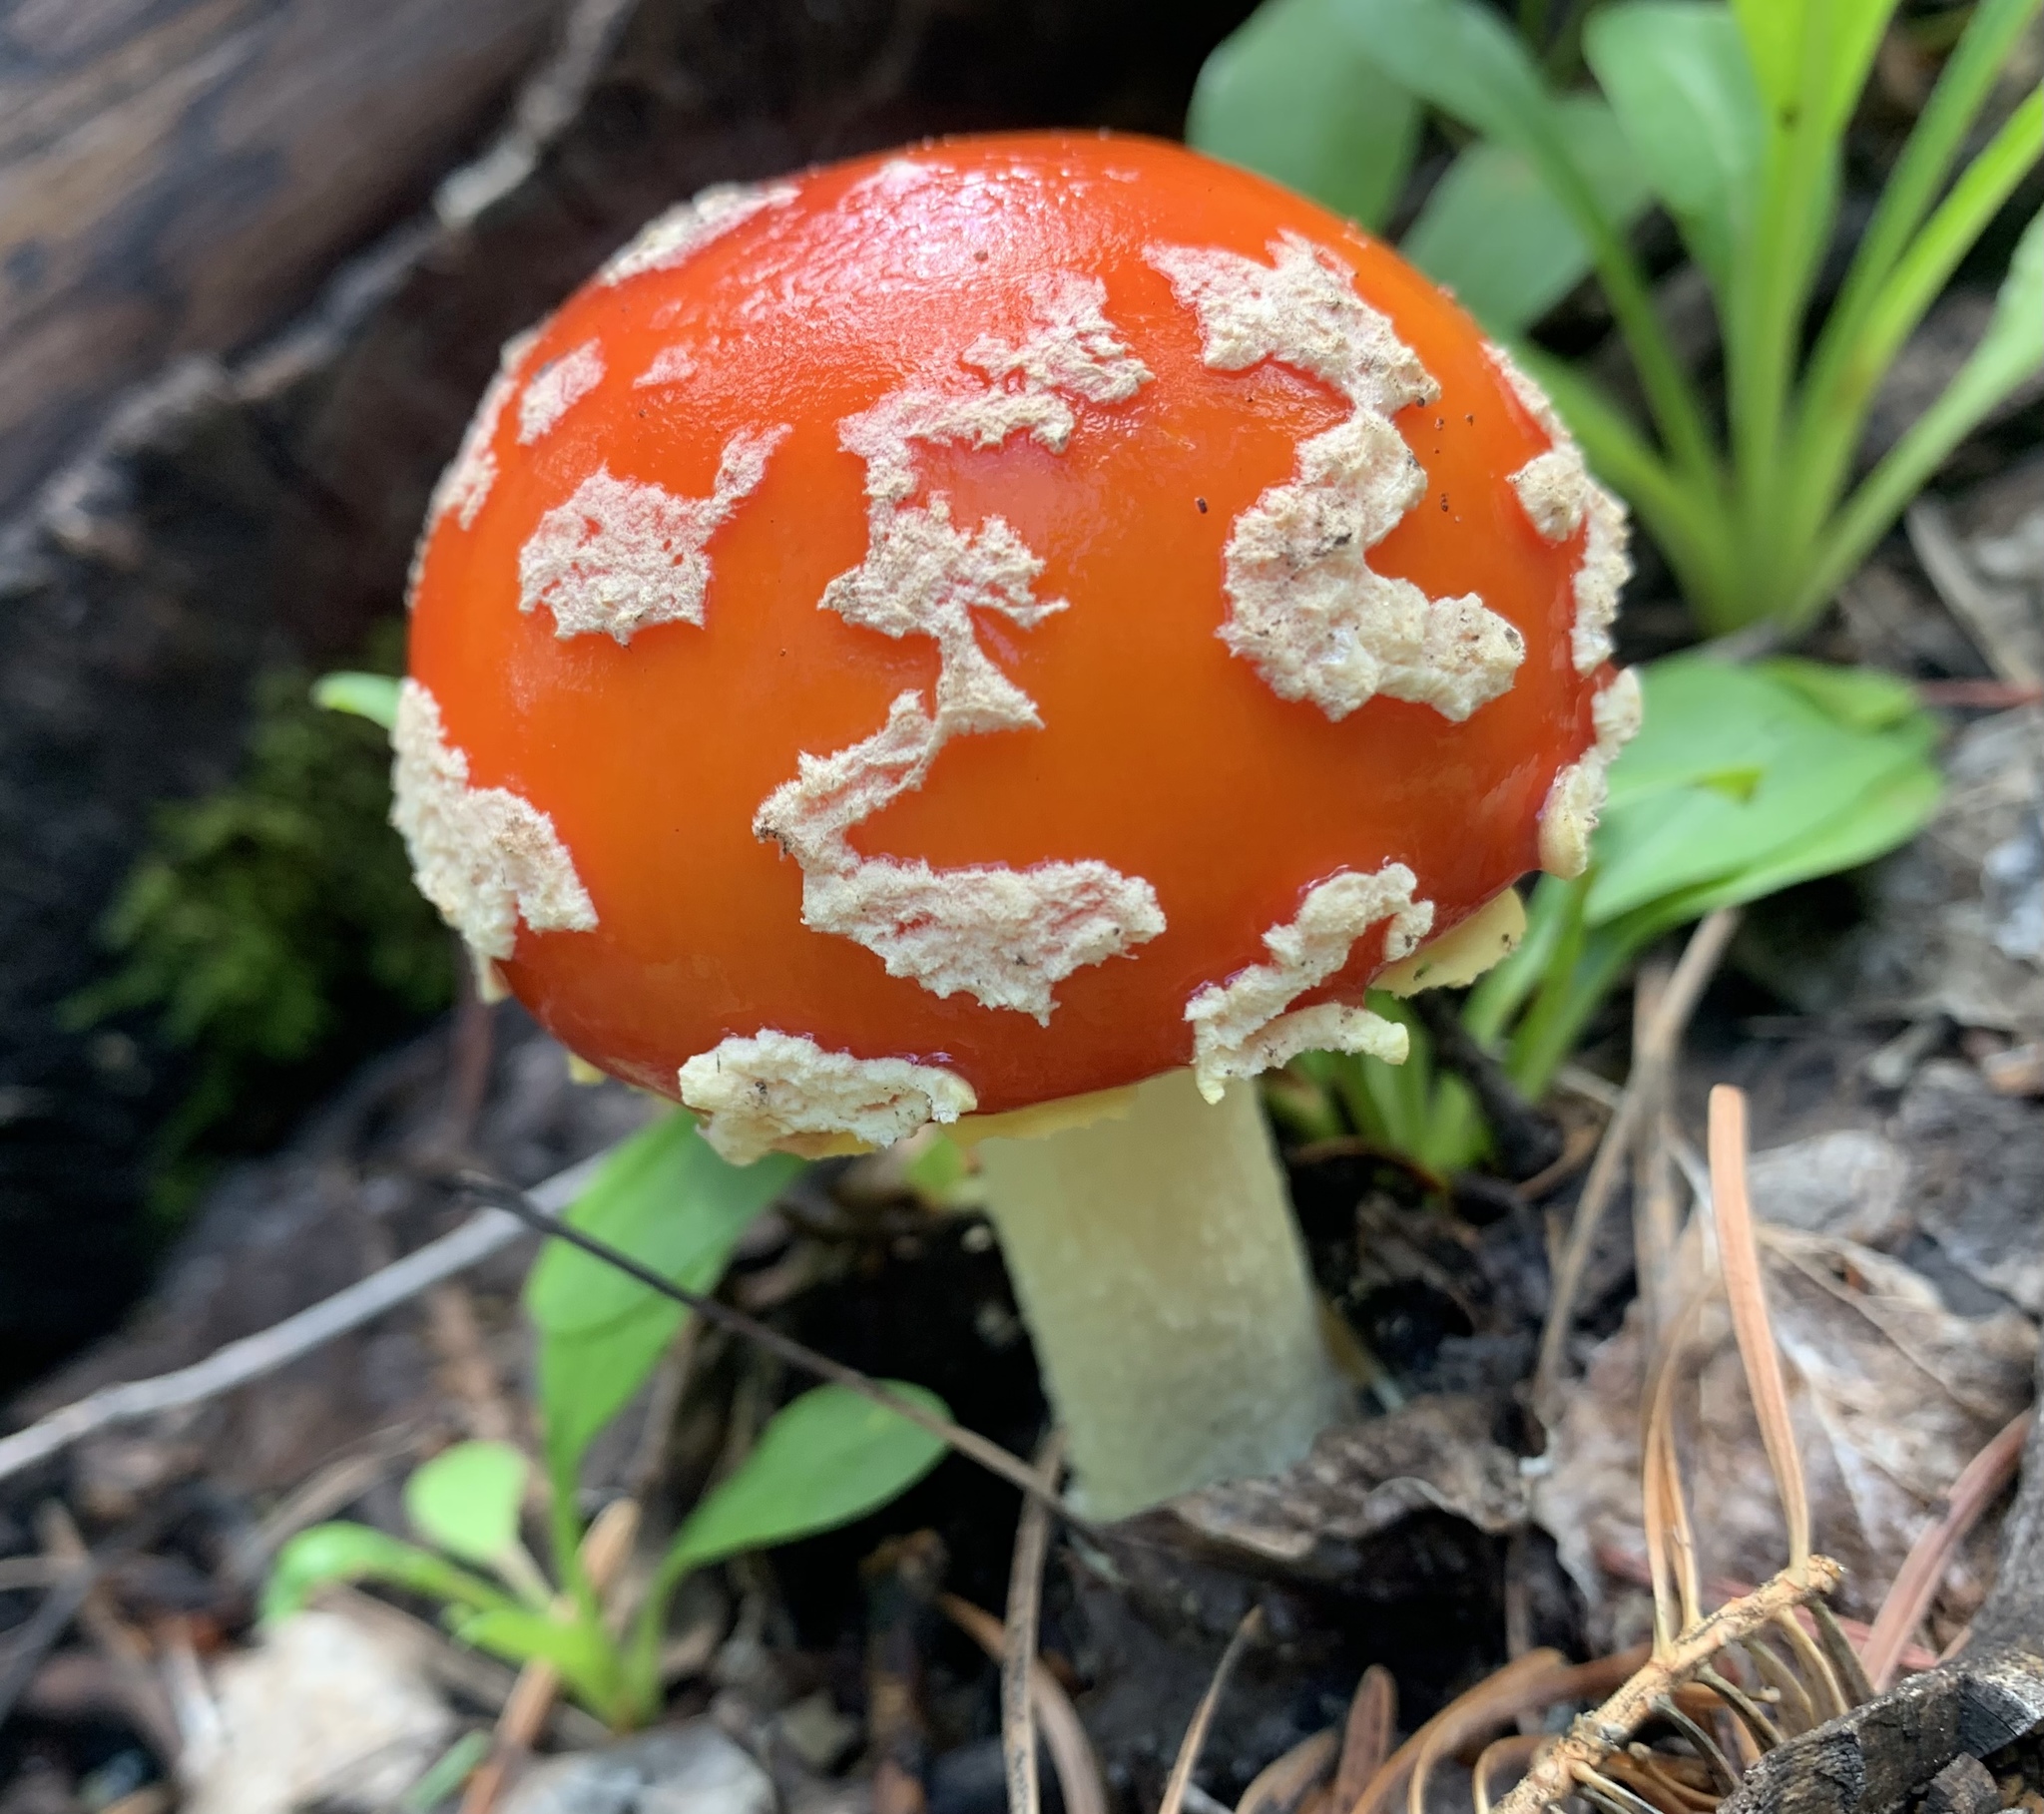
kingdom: Fungi
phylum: Basidiomycota
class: Agaricomycetes
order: Agaricales
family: Amanitaceae
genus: Amanita
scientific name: Amanita muscaria
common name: Fly agaric
